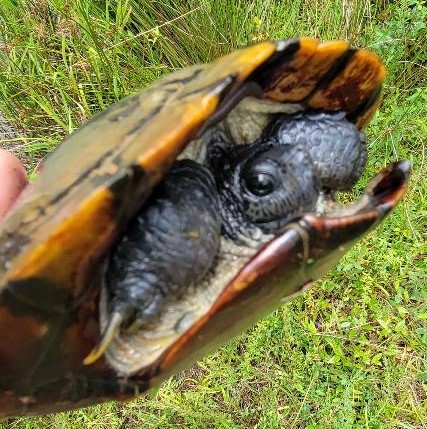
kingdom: Animalia
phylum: Chordata
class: Testudines
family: Emydidae
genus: Trachemys
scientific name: Trachemys scripta
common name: Slider
